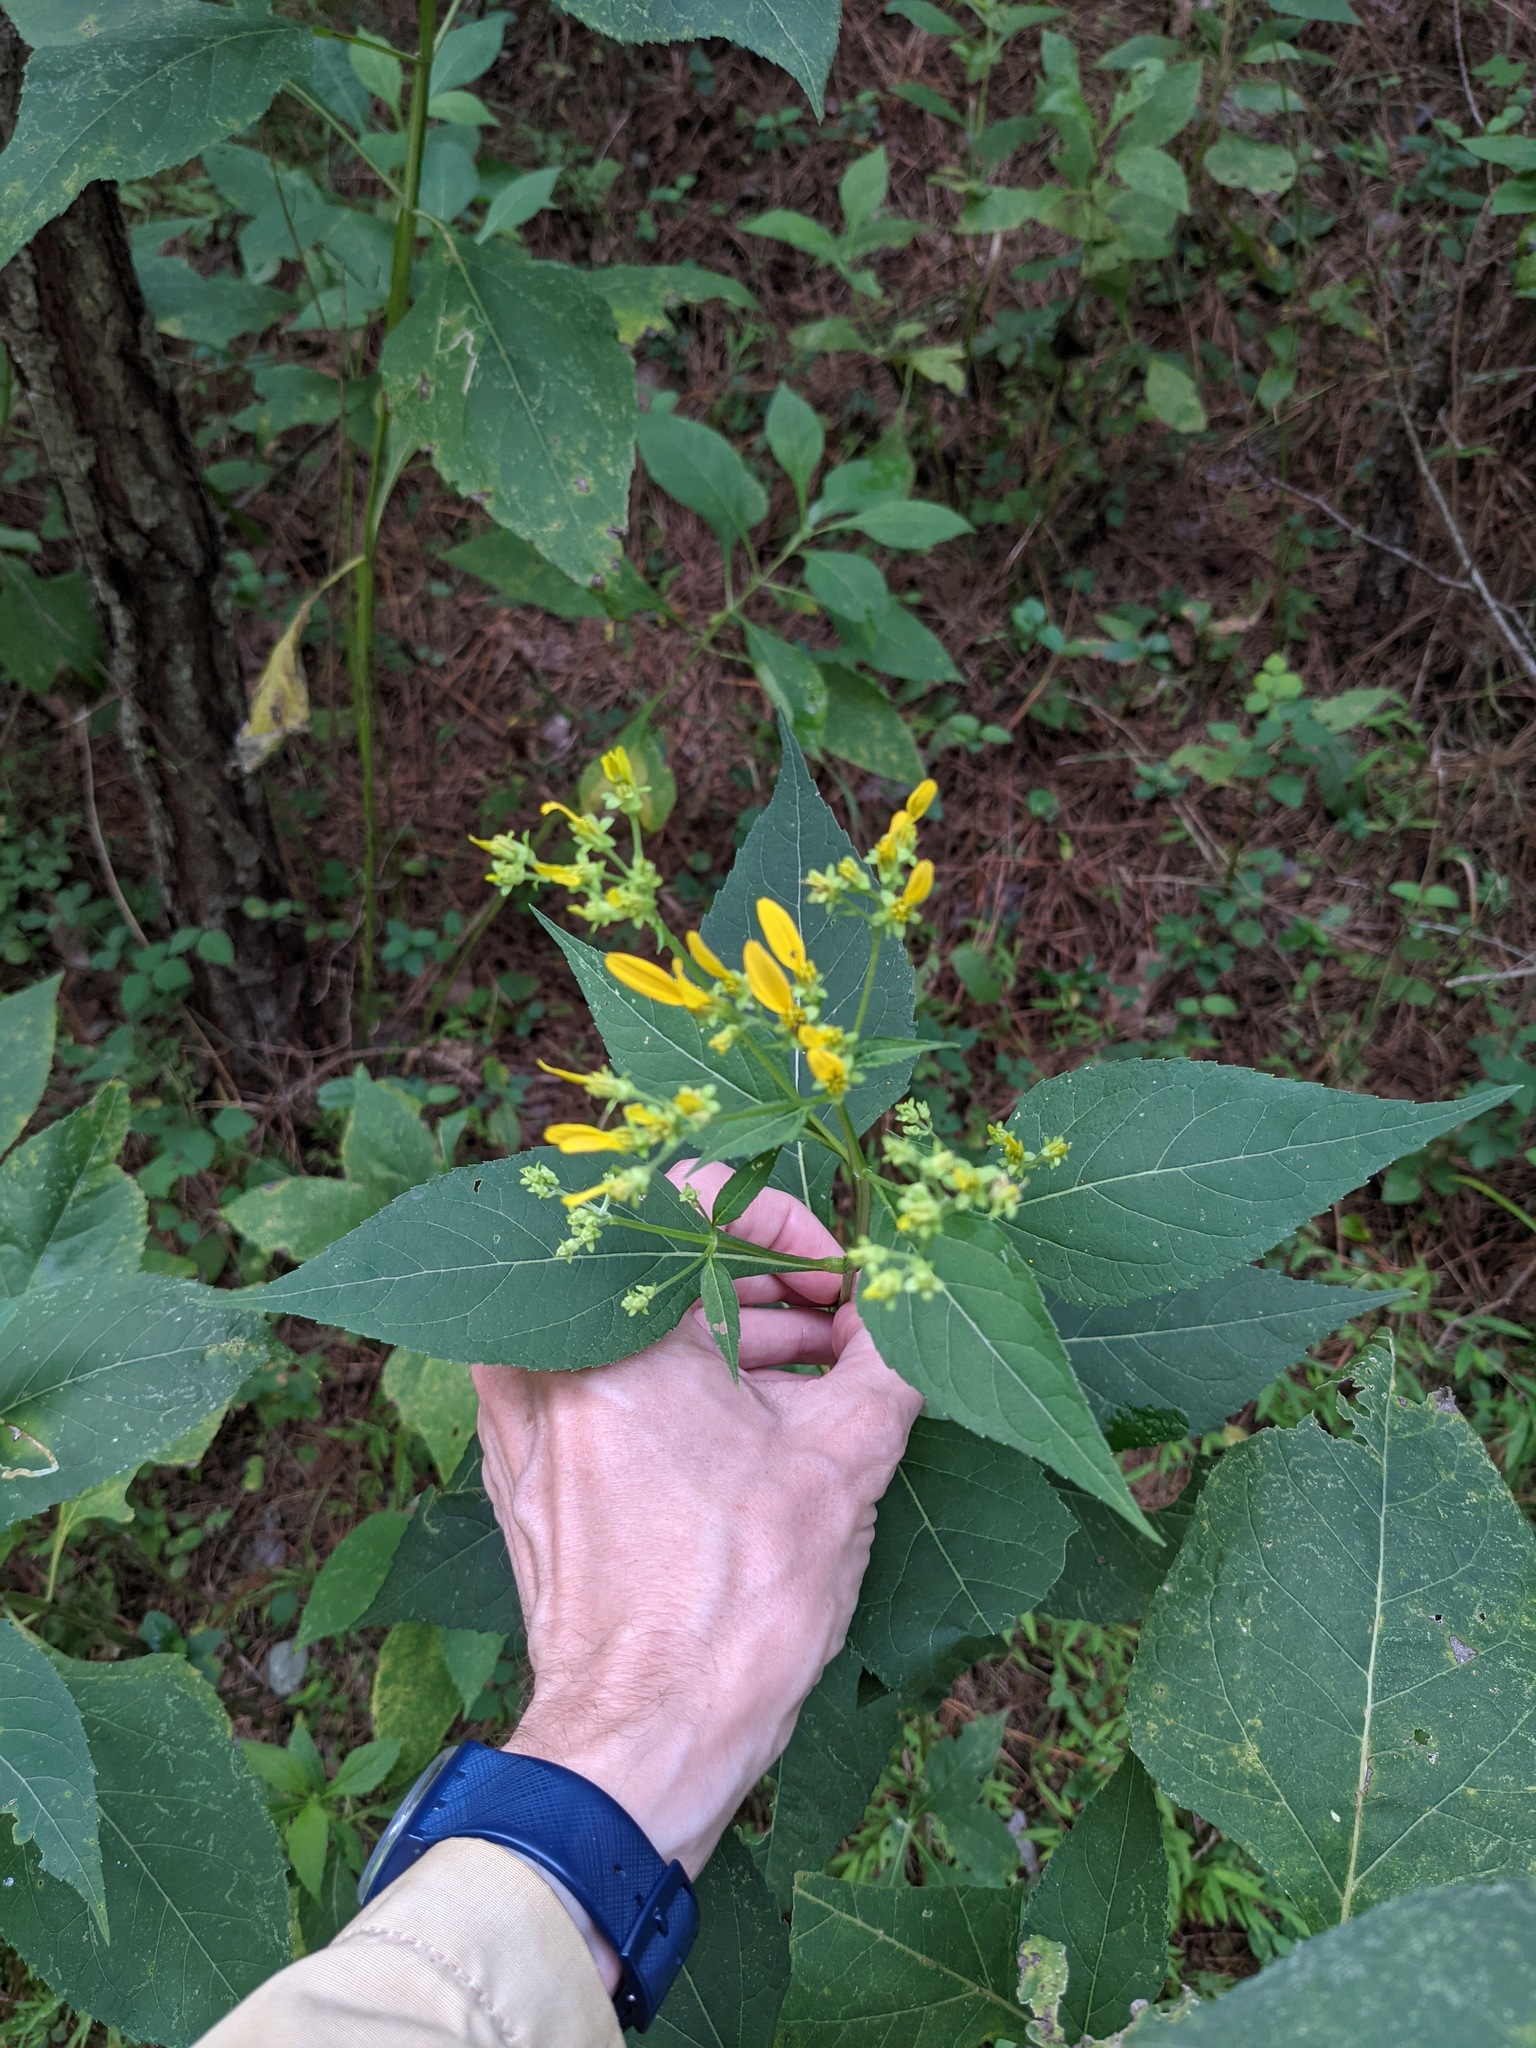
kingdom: Plantae
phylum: Tracheophyta
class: Magnoliopsida
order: Asterales
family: Asteraceae
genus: Verbesina
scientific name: Verbesina occidentalis
